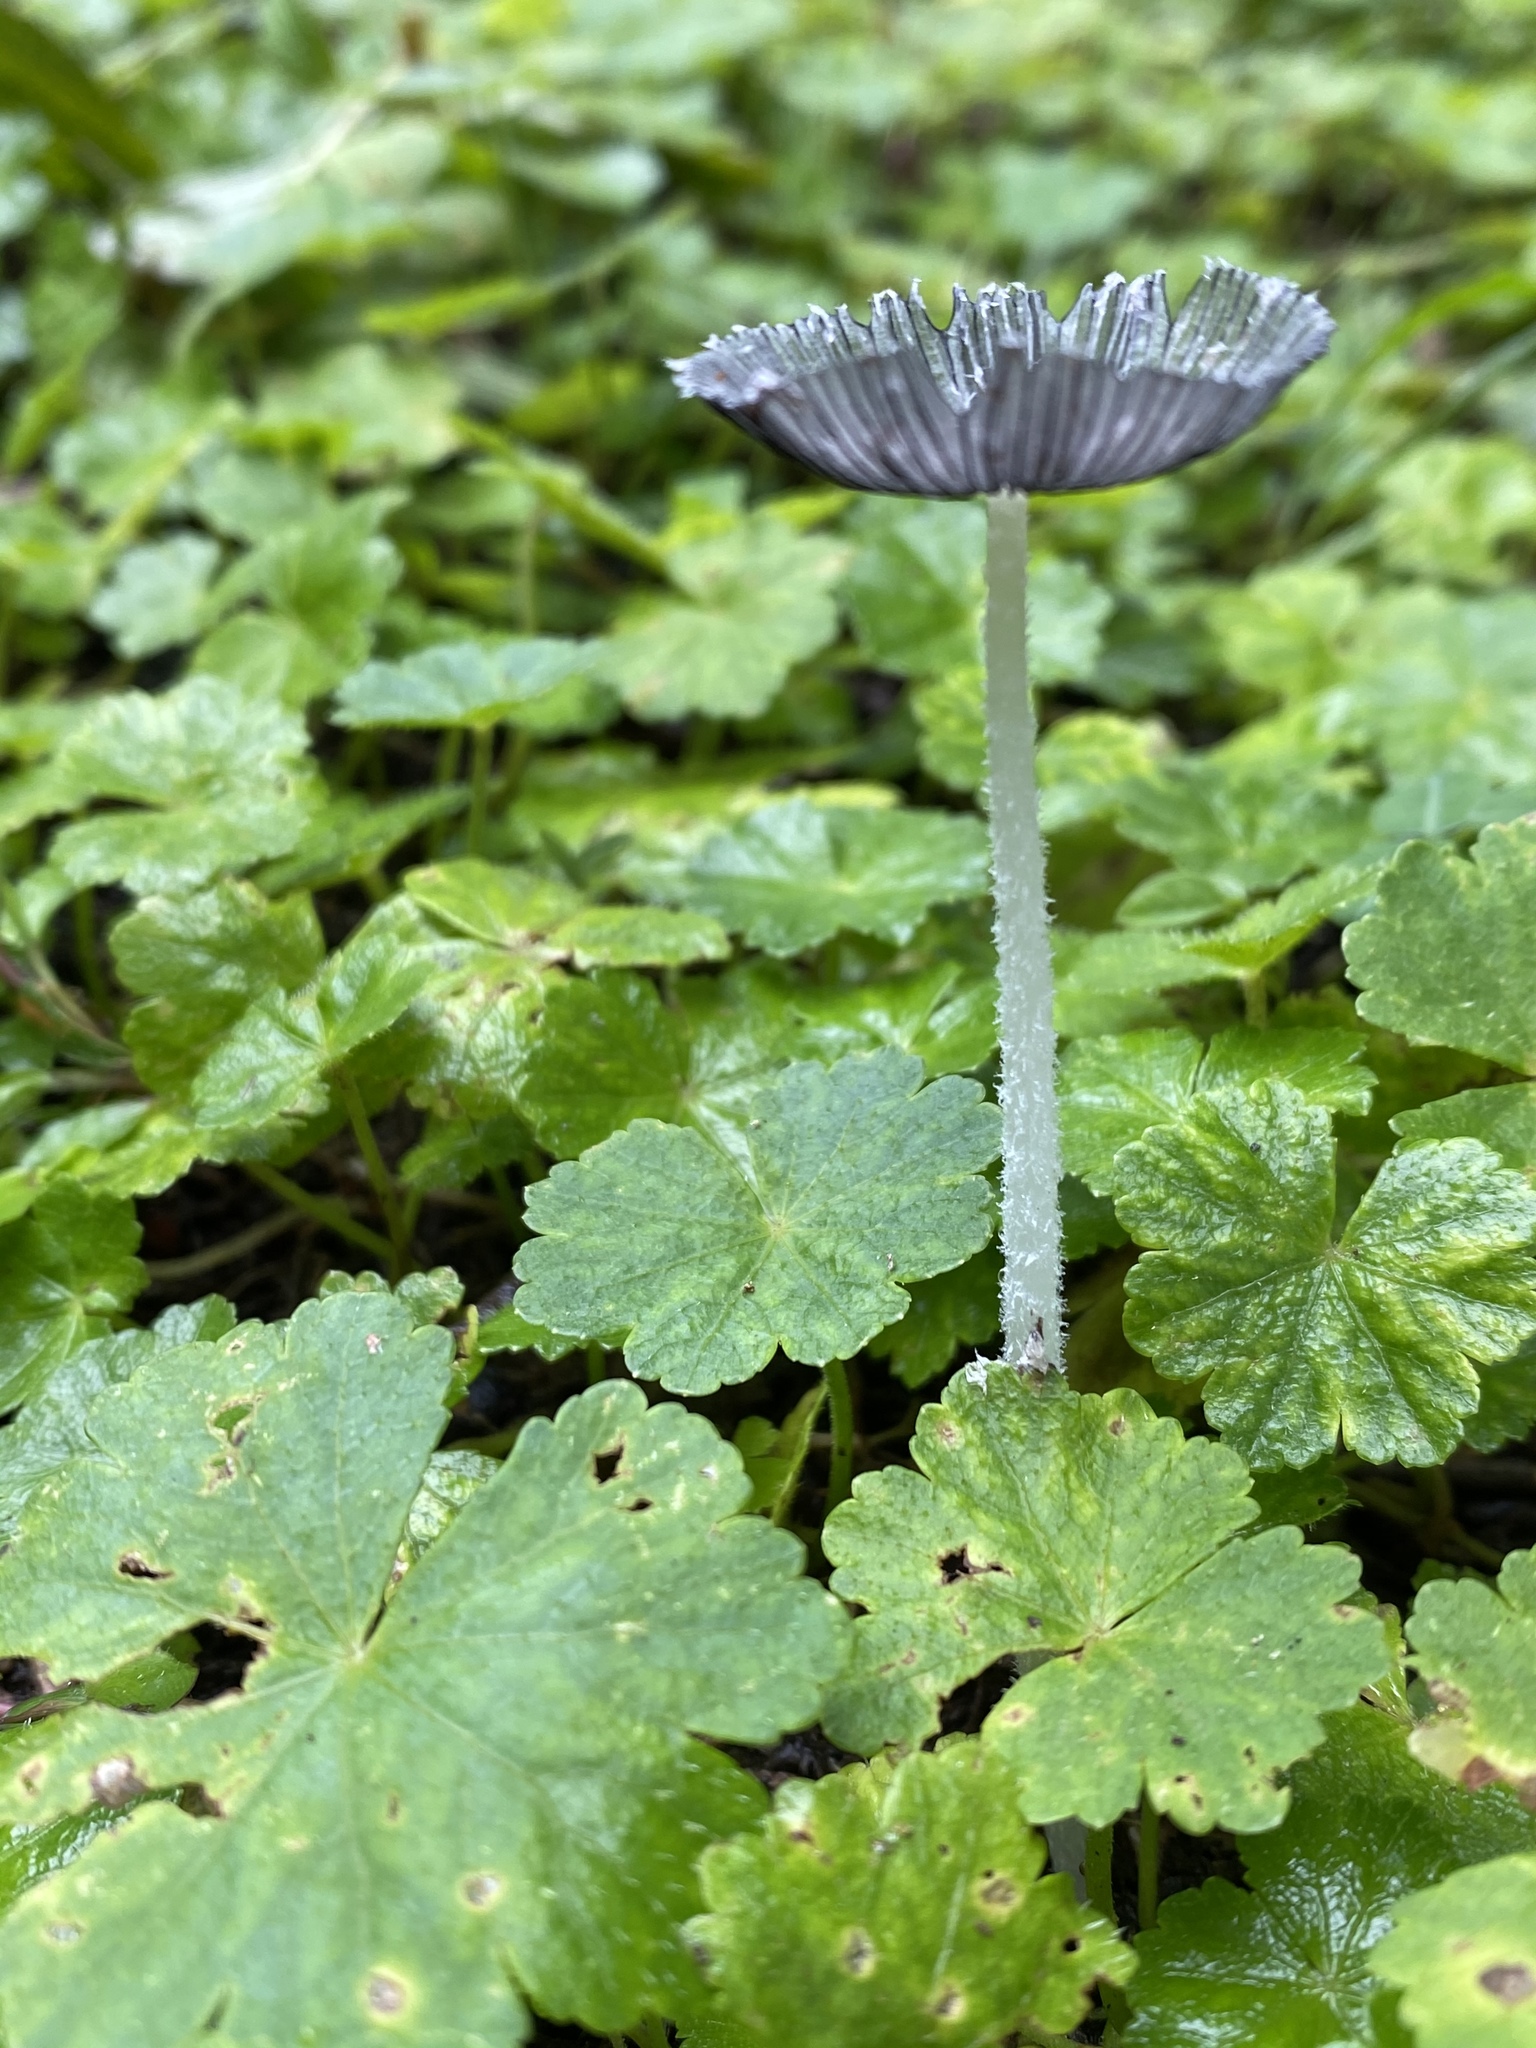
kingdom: Fungi
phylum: Basidiomycota
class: Agaricomycetes
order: Agaricales
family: Psathyrellaceae
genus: Coprinopsis
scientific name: Coprinopsis lagopus
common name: Hare'sfoot inkcap
